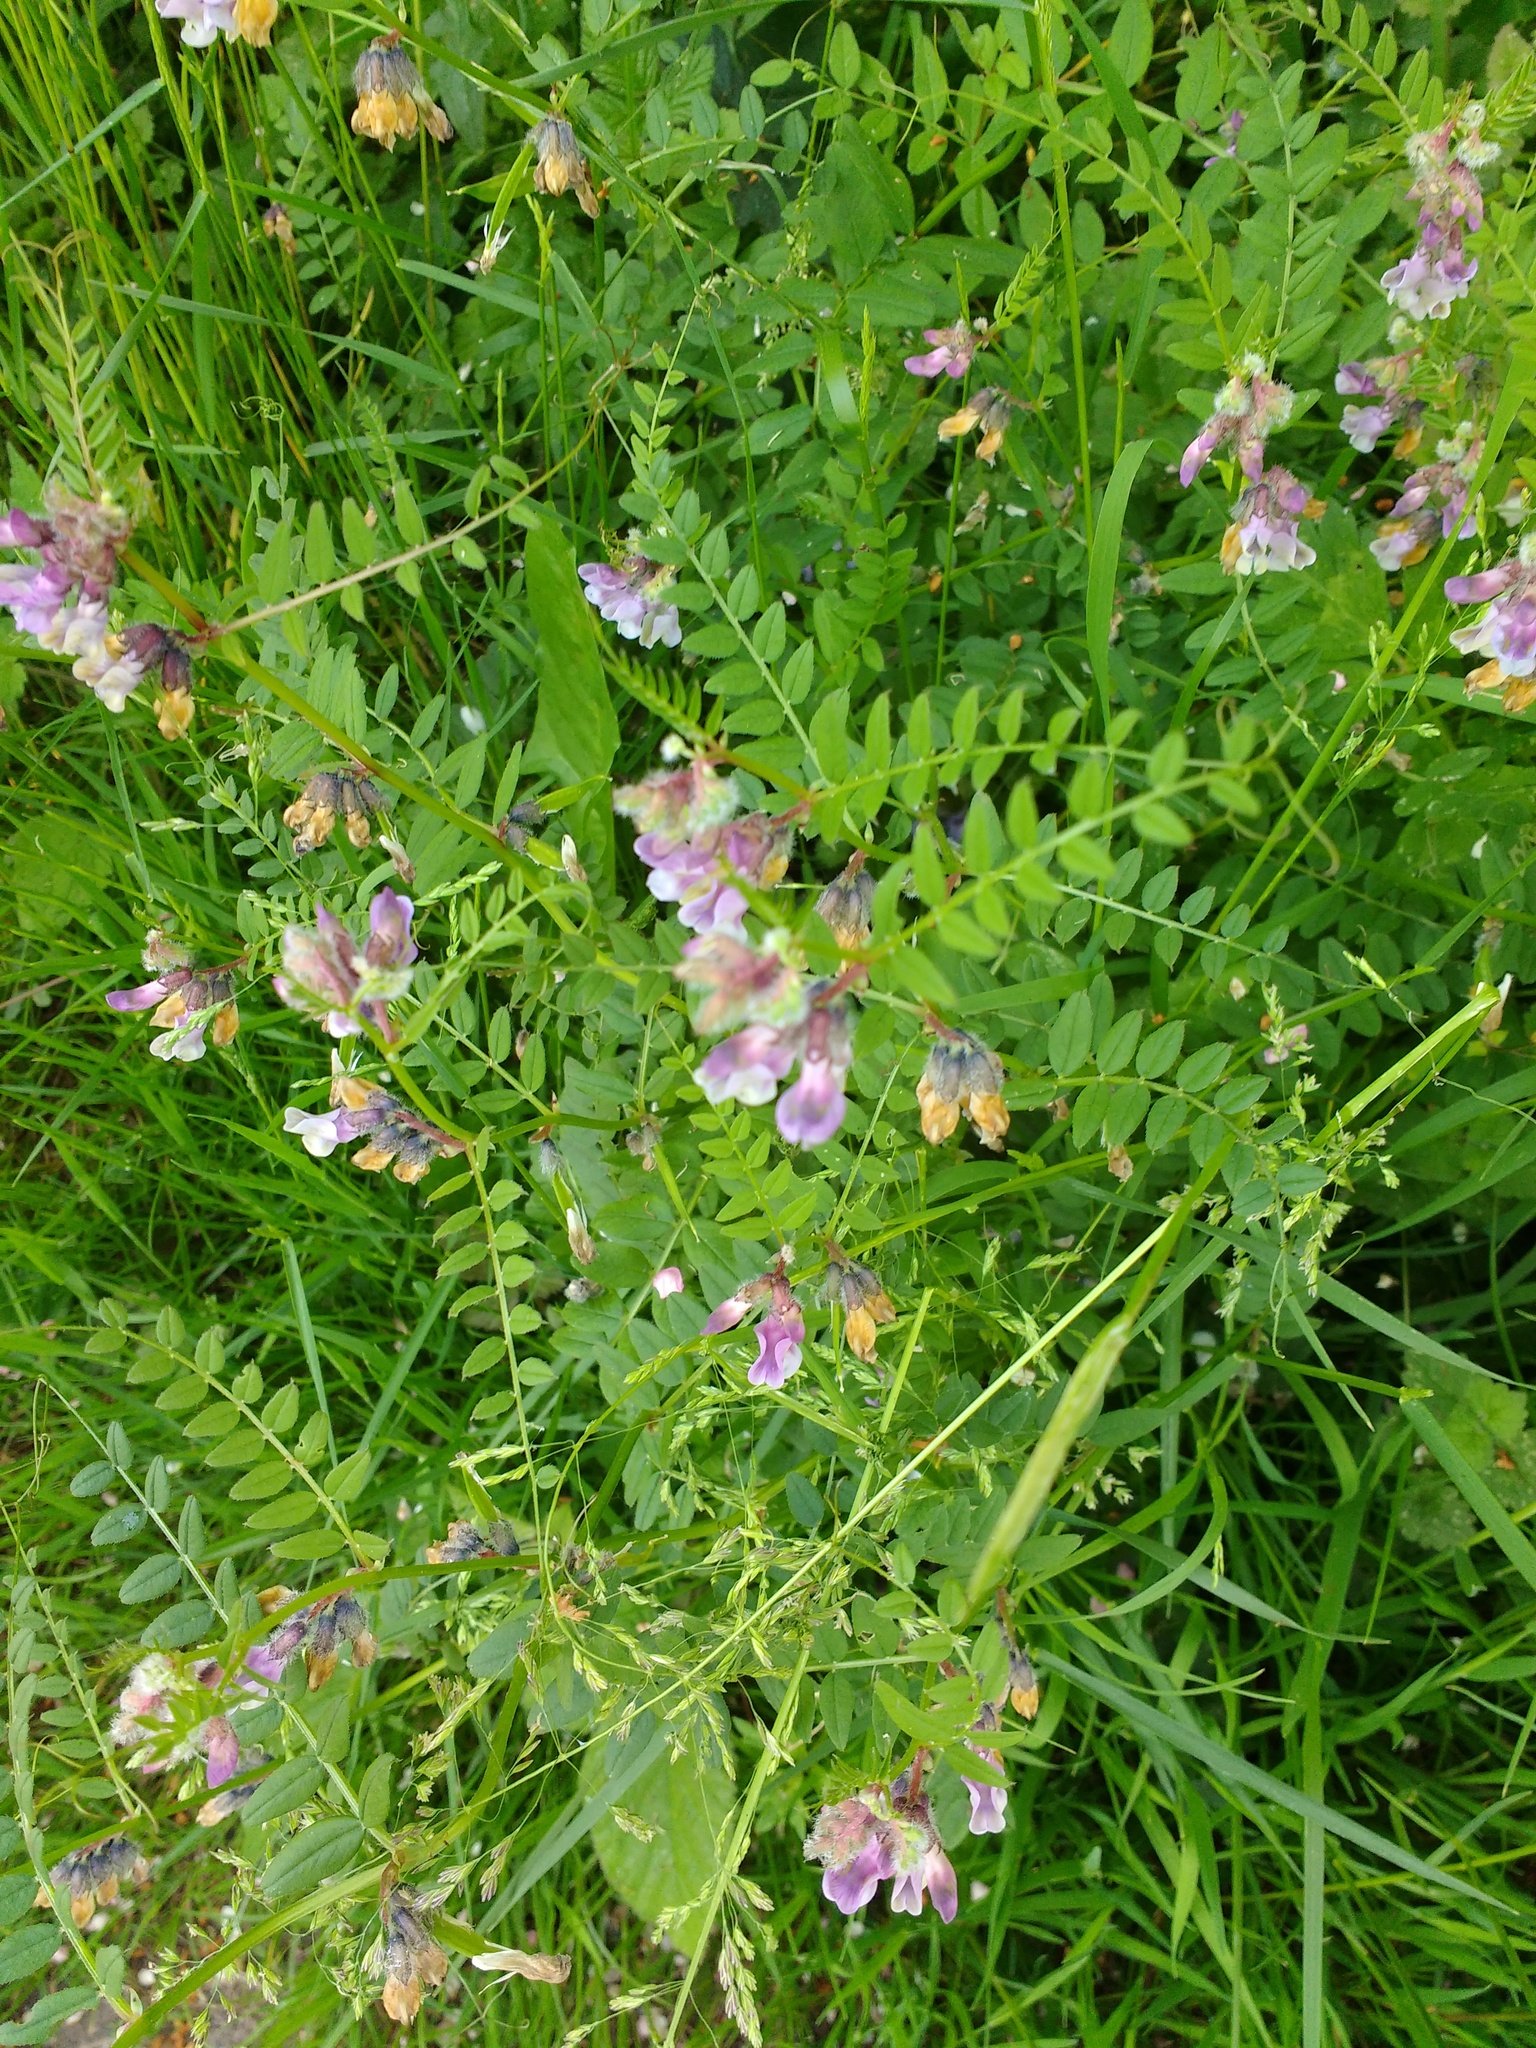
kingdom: Plantae
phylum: Tracheophyta
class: Magnoliopsida
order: Fabales
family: Fabaceae
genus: Vicia
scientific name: Vicia sepium
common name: Bush vetch
